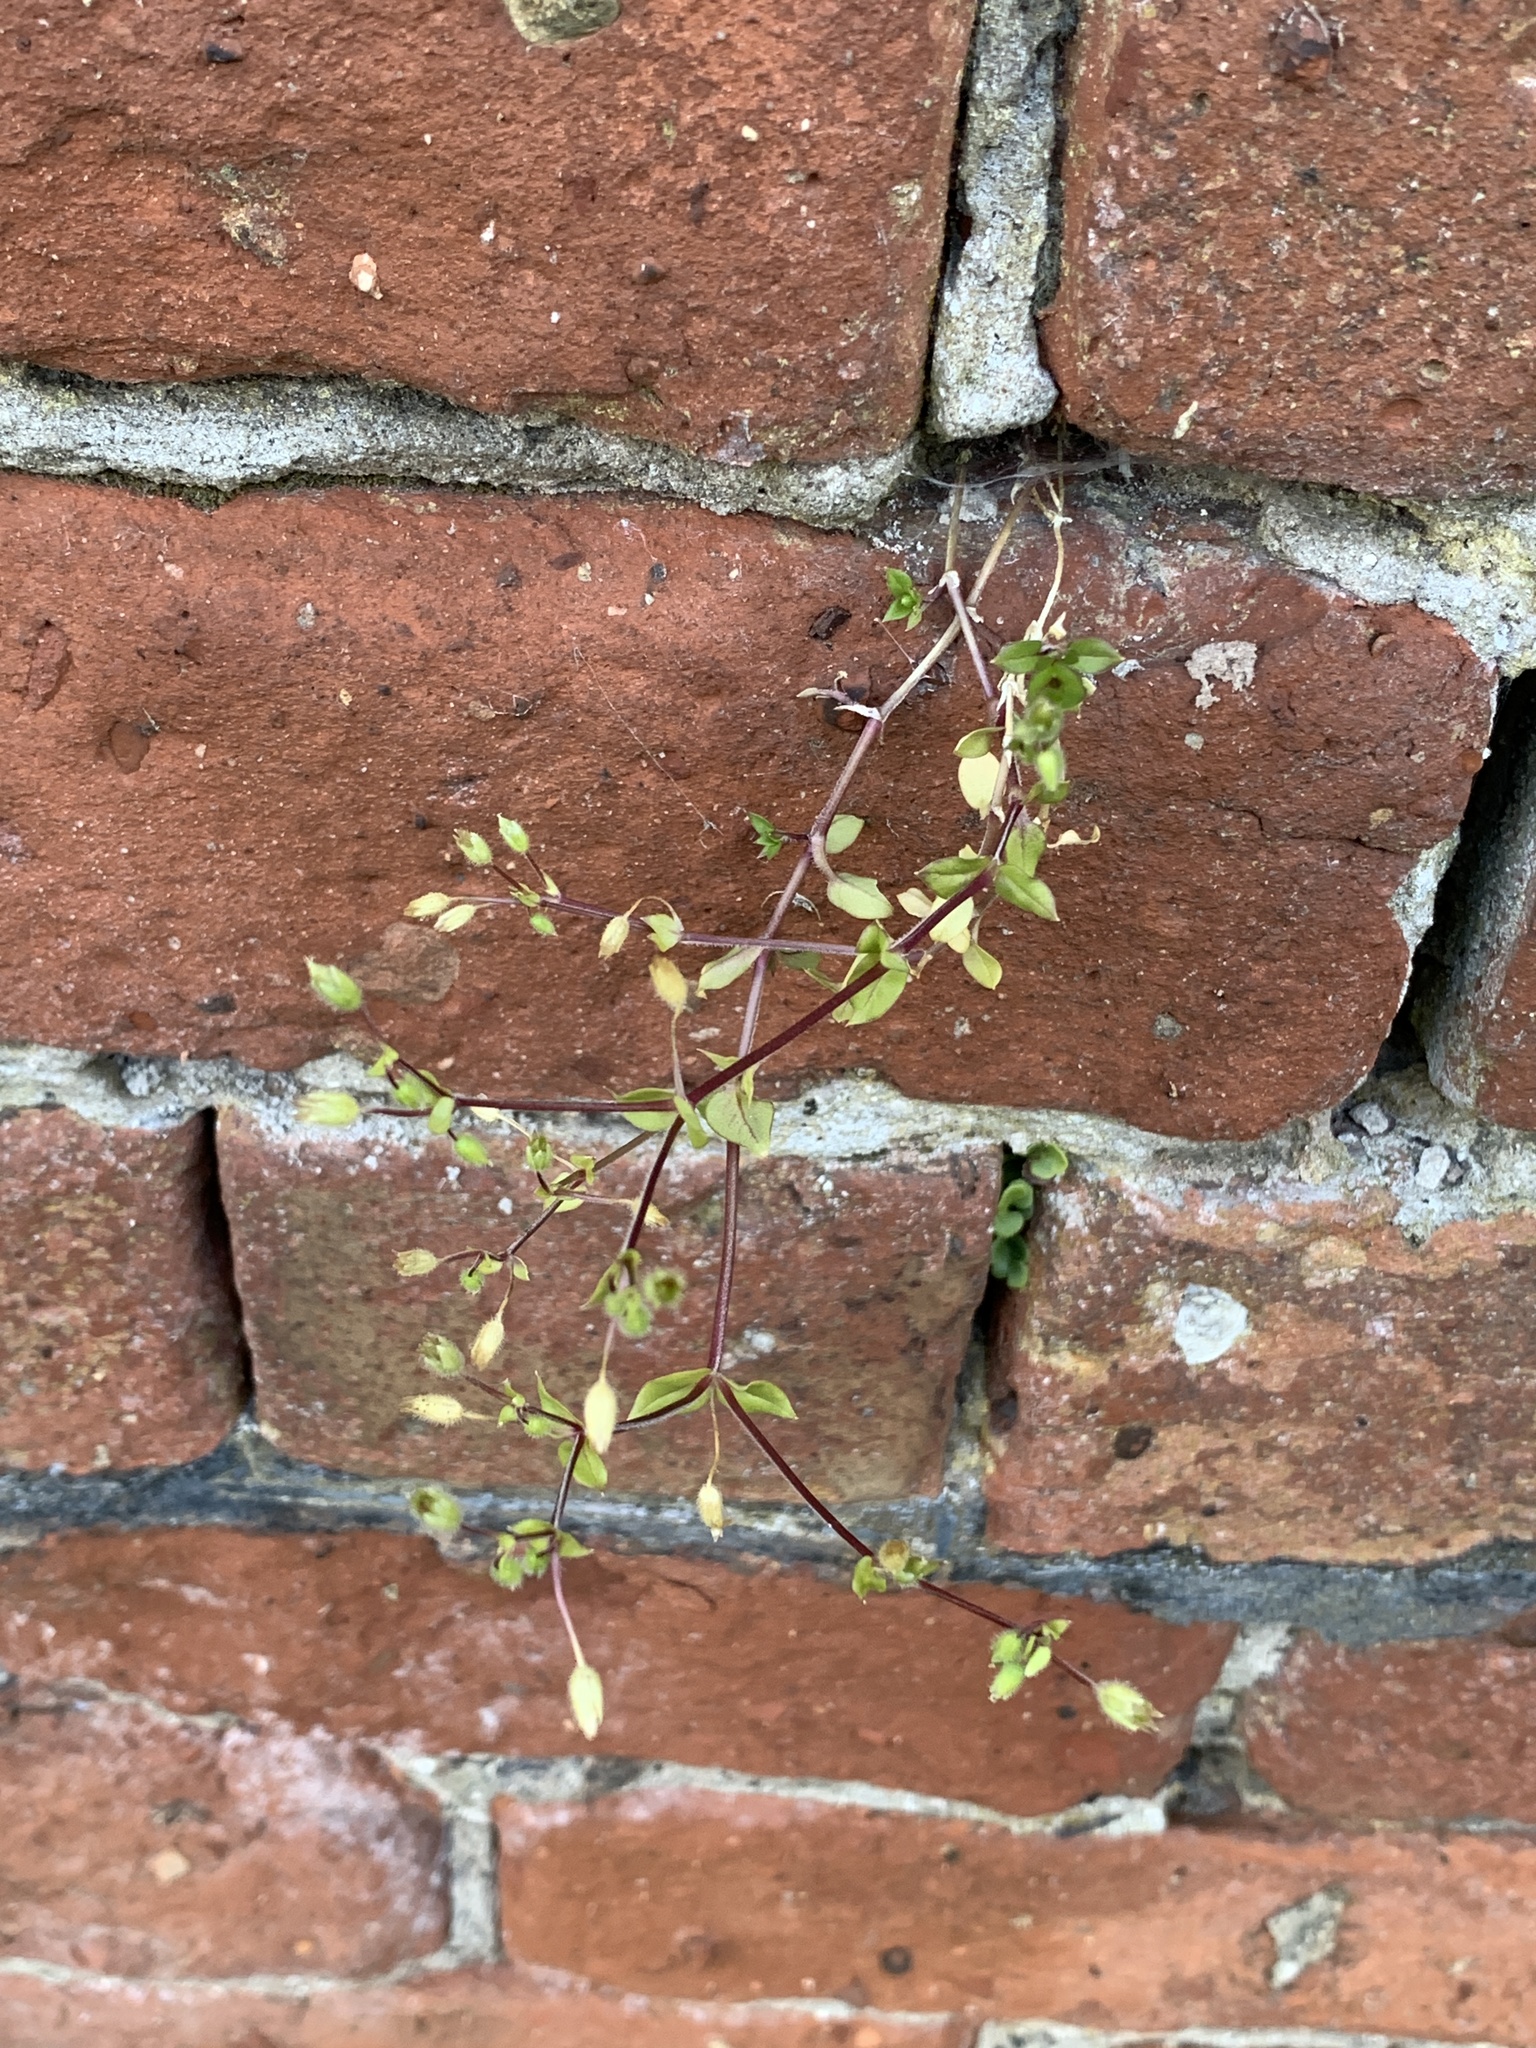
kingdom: Plantae
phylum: Tracheophyta
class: Magnoliopsida
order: Caryophyllales
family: Caryophyllaceae
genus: Stellaria
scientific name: Stellaria media
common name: Common chickweed
